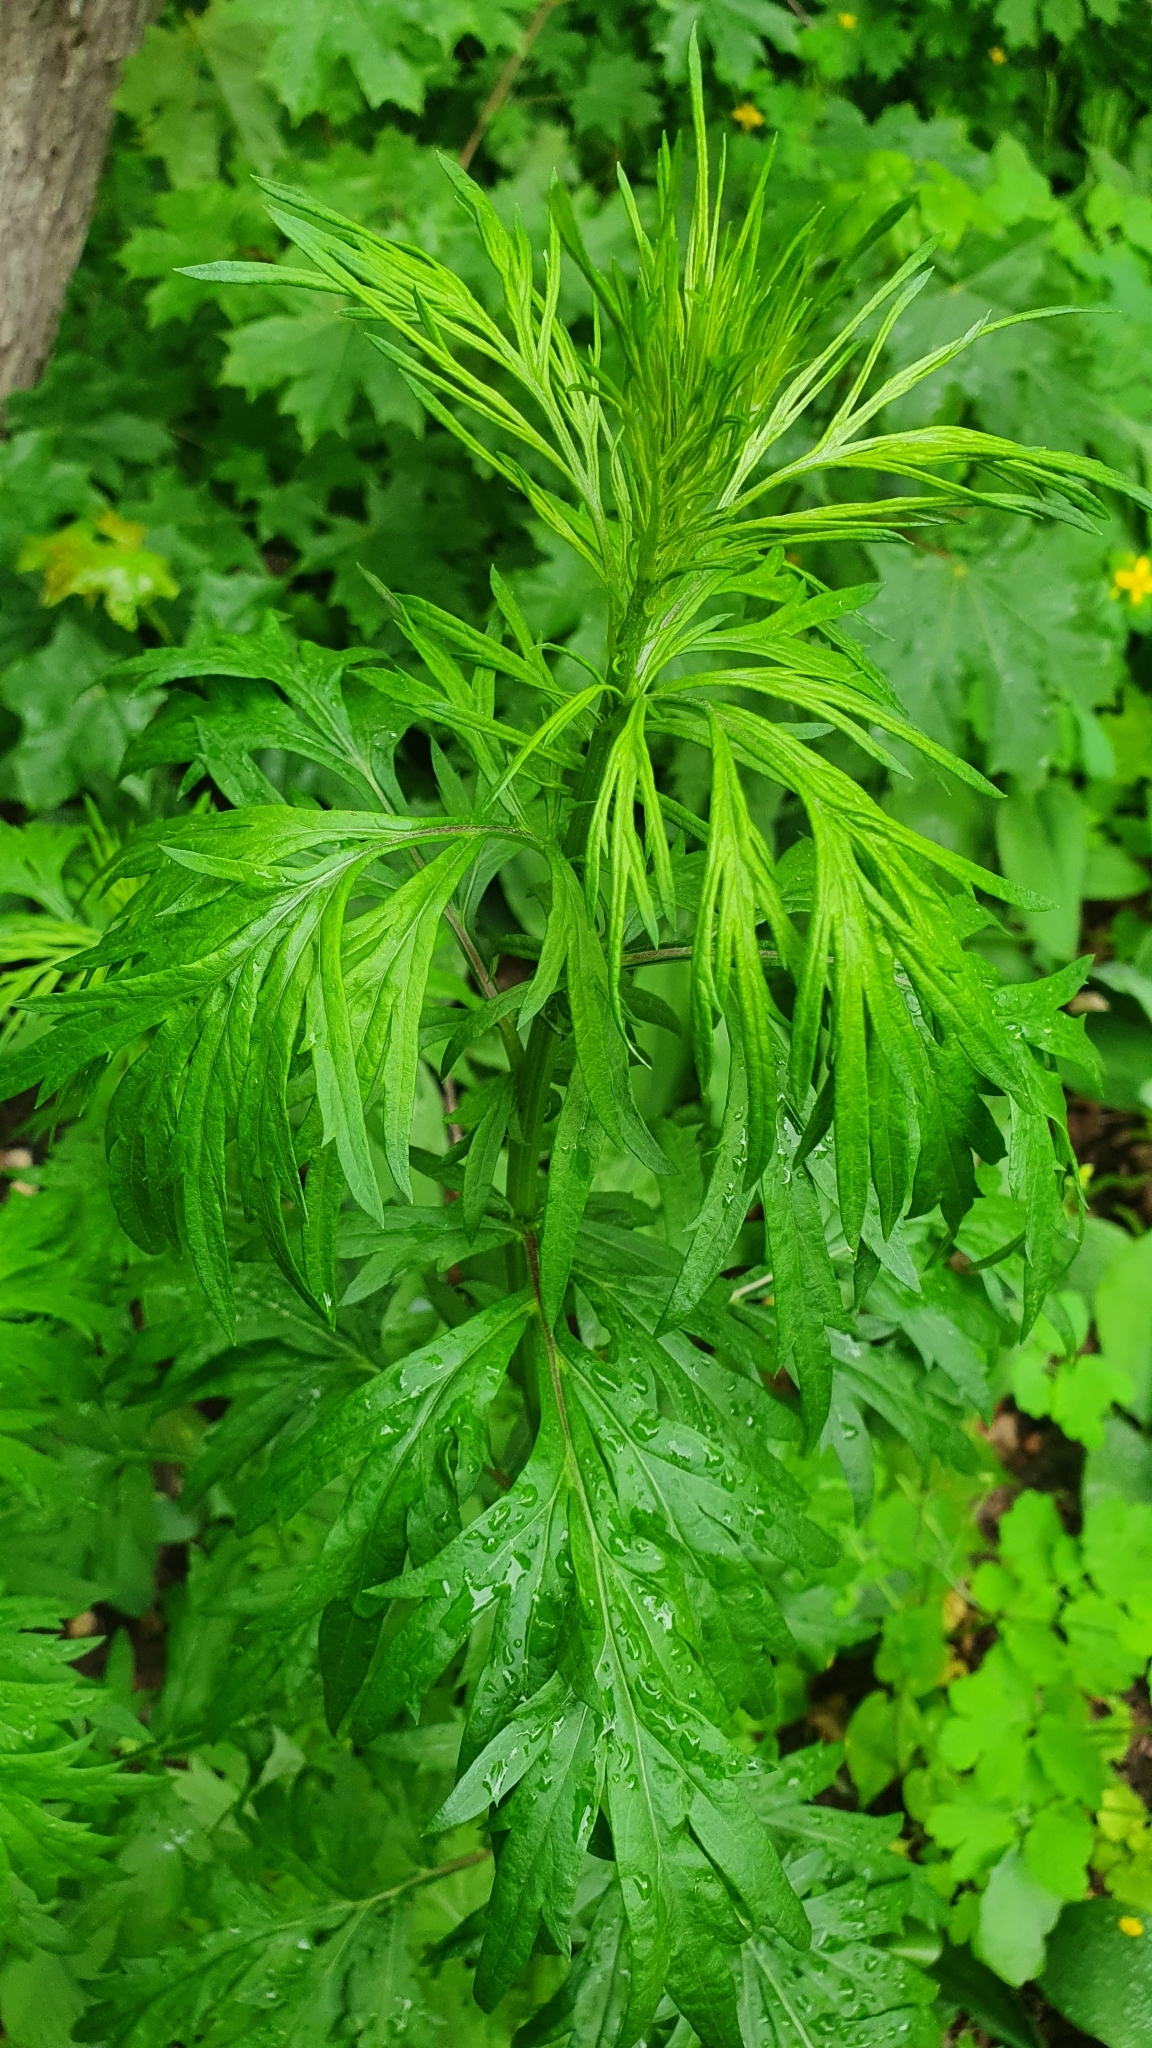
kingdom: Plantae
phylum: Tracheophyta
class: Magnoliopsida
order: Asterales
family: Asteraceae
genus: Artemisia
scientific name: Artemisia vulgaris
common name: Mugwort
